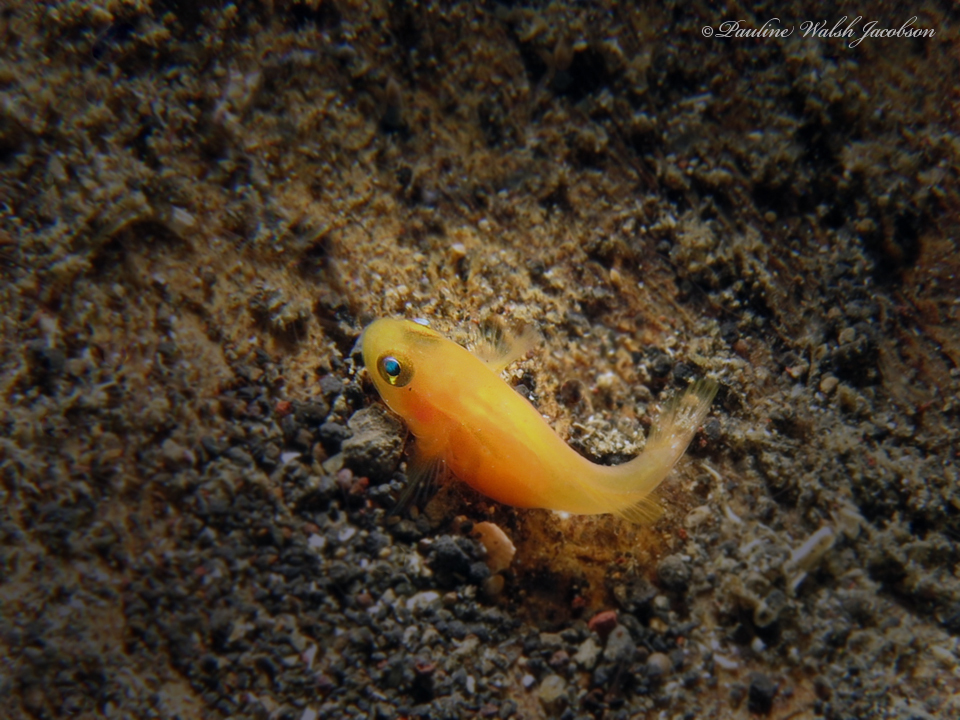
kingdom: Animalia
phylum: Chordata
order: Perciformes
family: Gobiidae
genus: Lubricogobius
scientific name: Lubricogobius exiguus
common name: Yellow pygmy-goby
